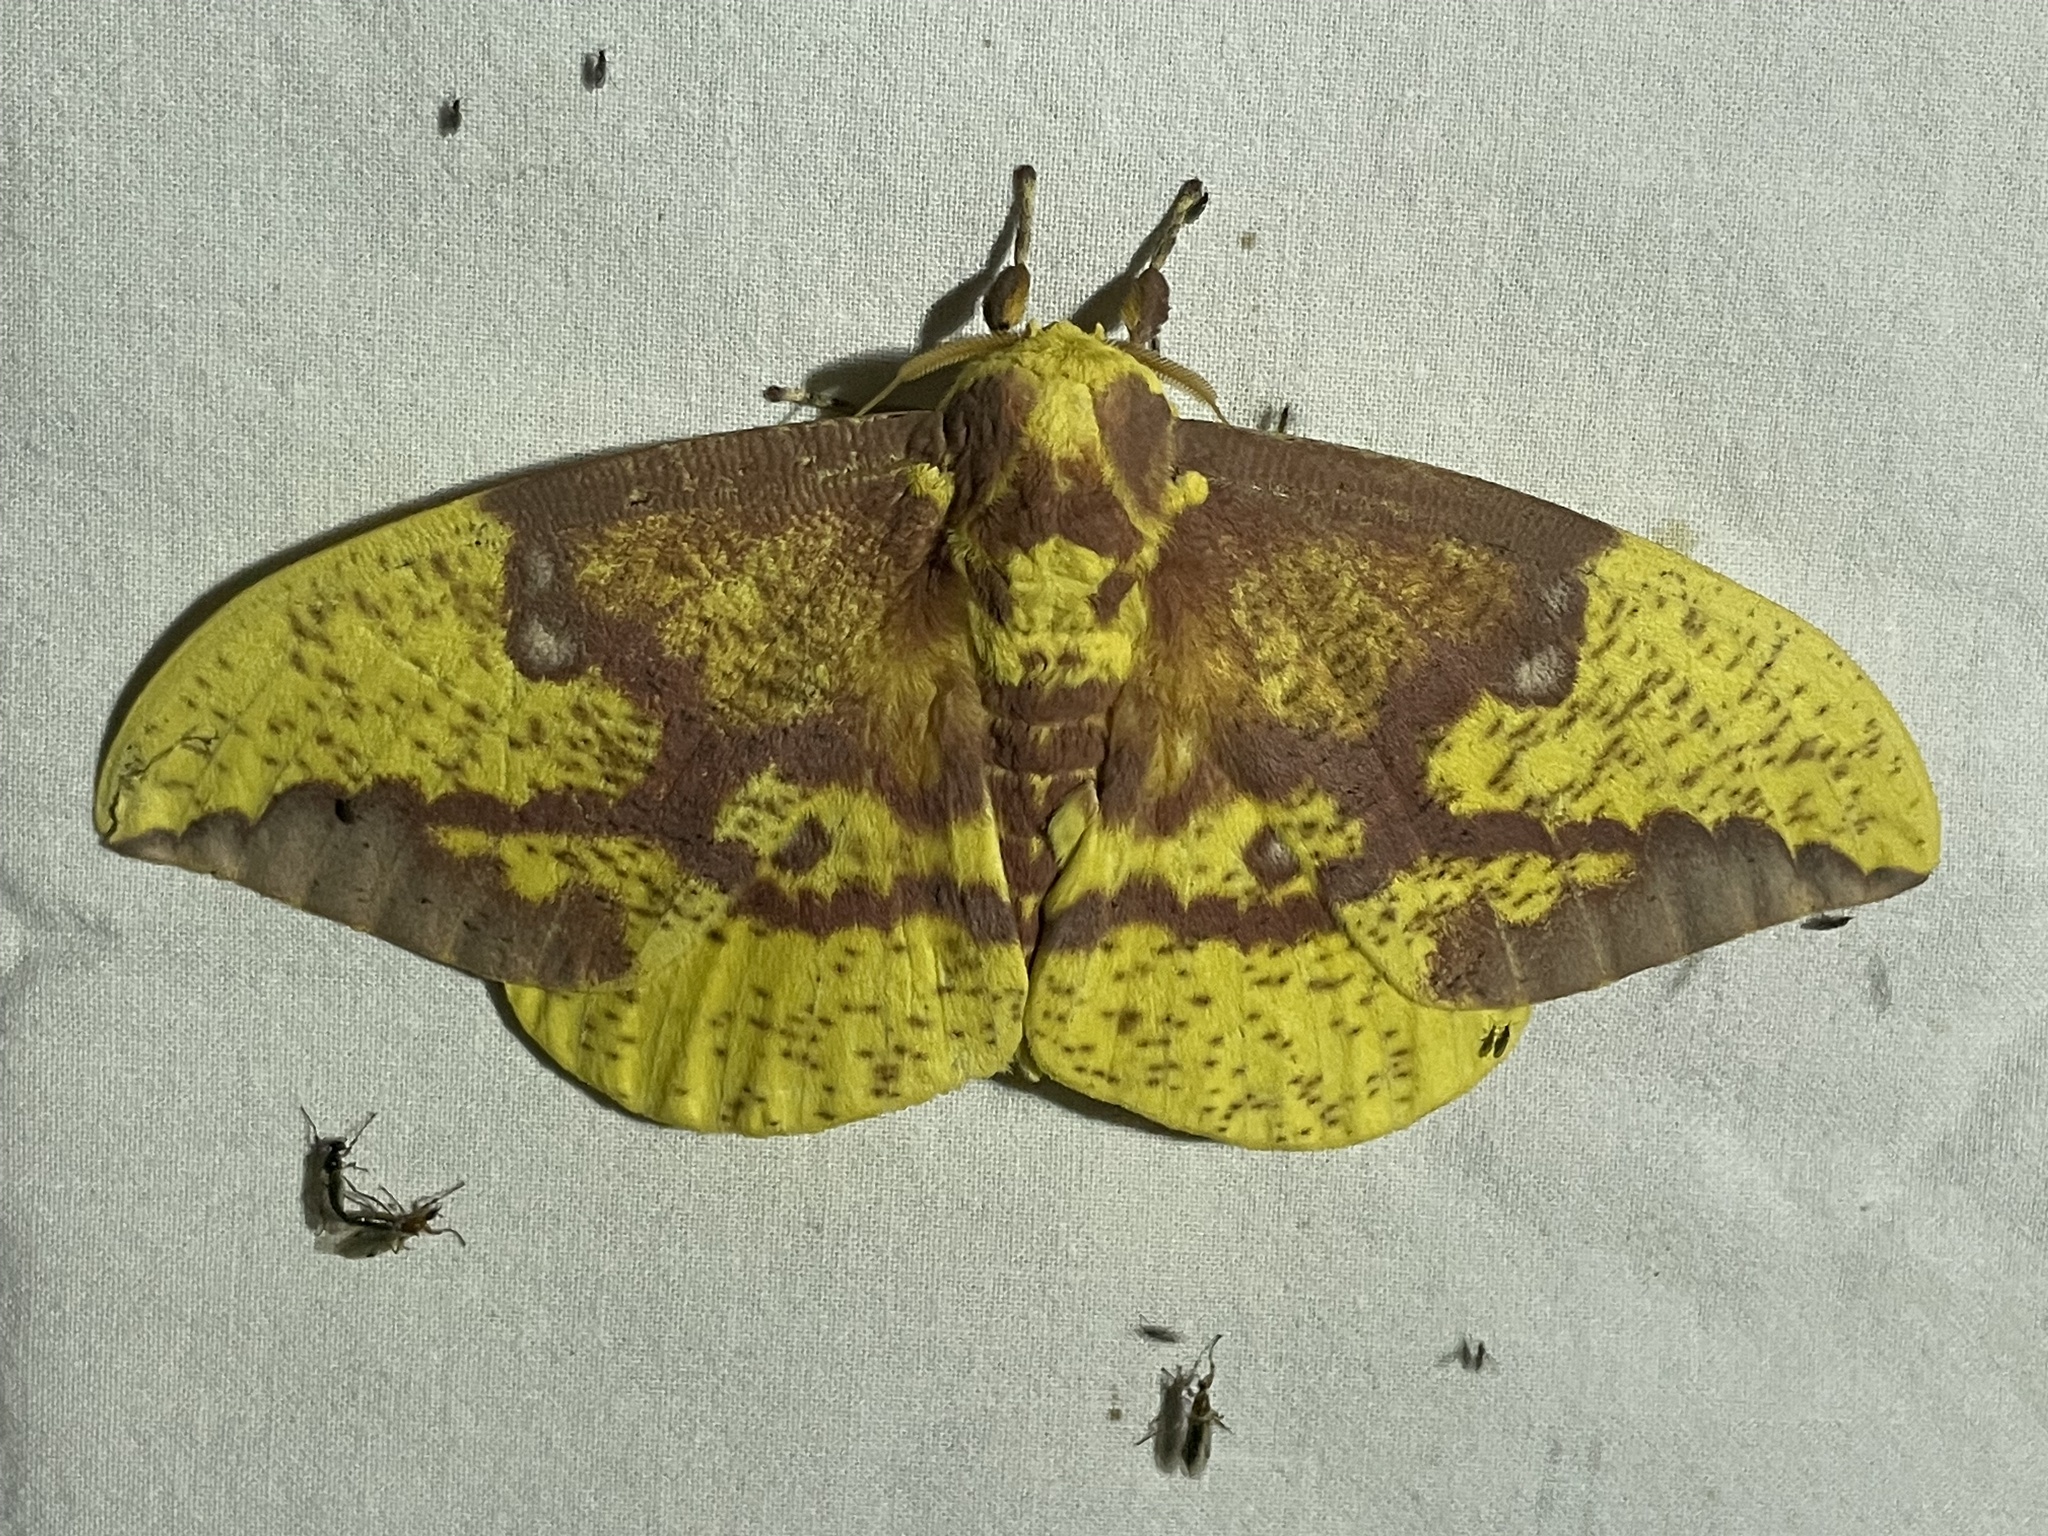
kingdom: Animalia
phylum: Arthropoda
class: Insecta
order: Lepidoptera
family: Saturniidae
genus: Eacles
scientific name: Eacles imperialis
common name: Imperial moth
